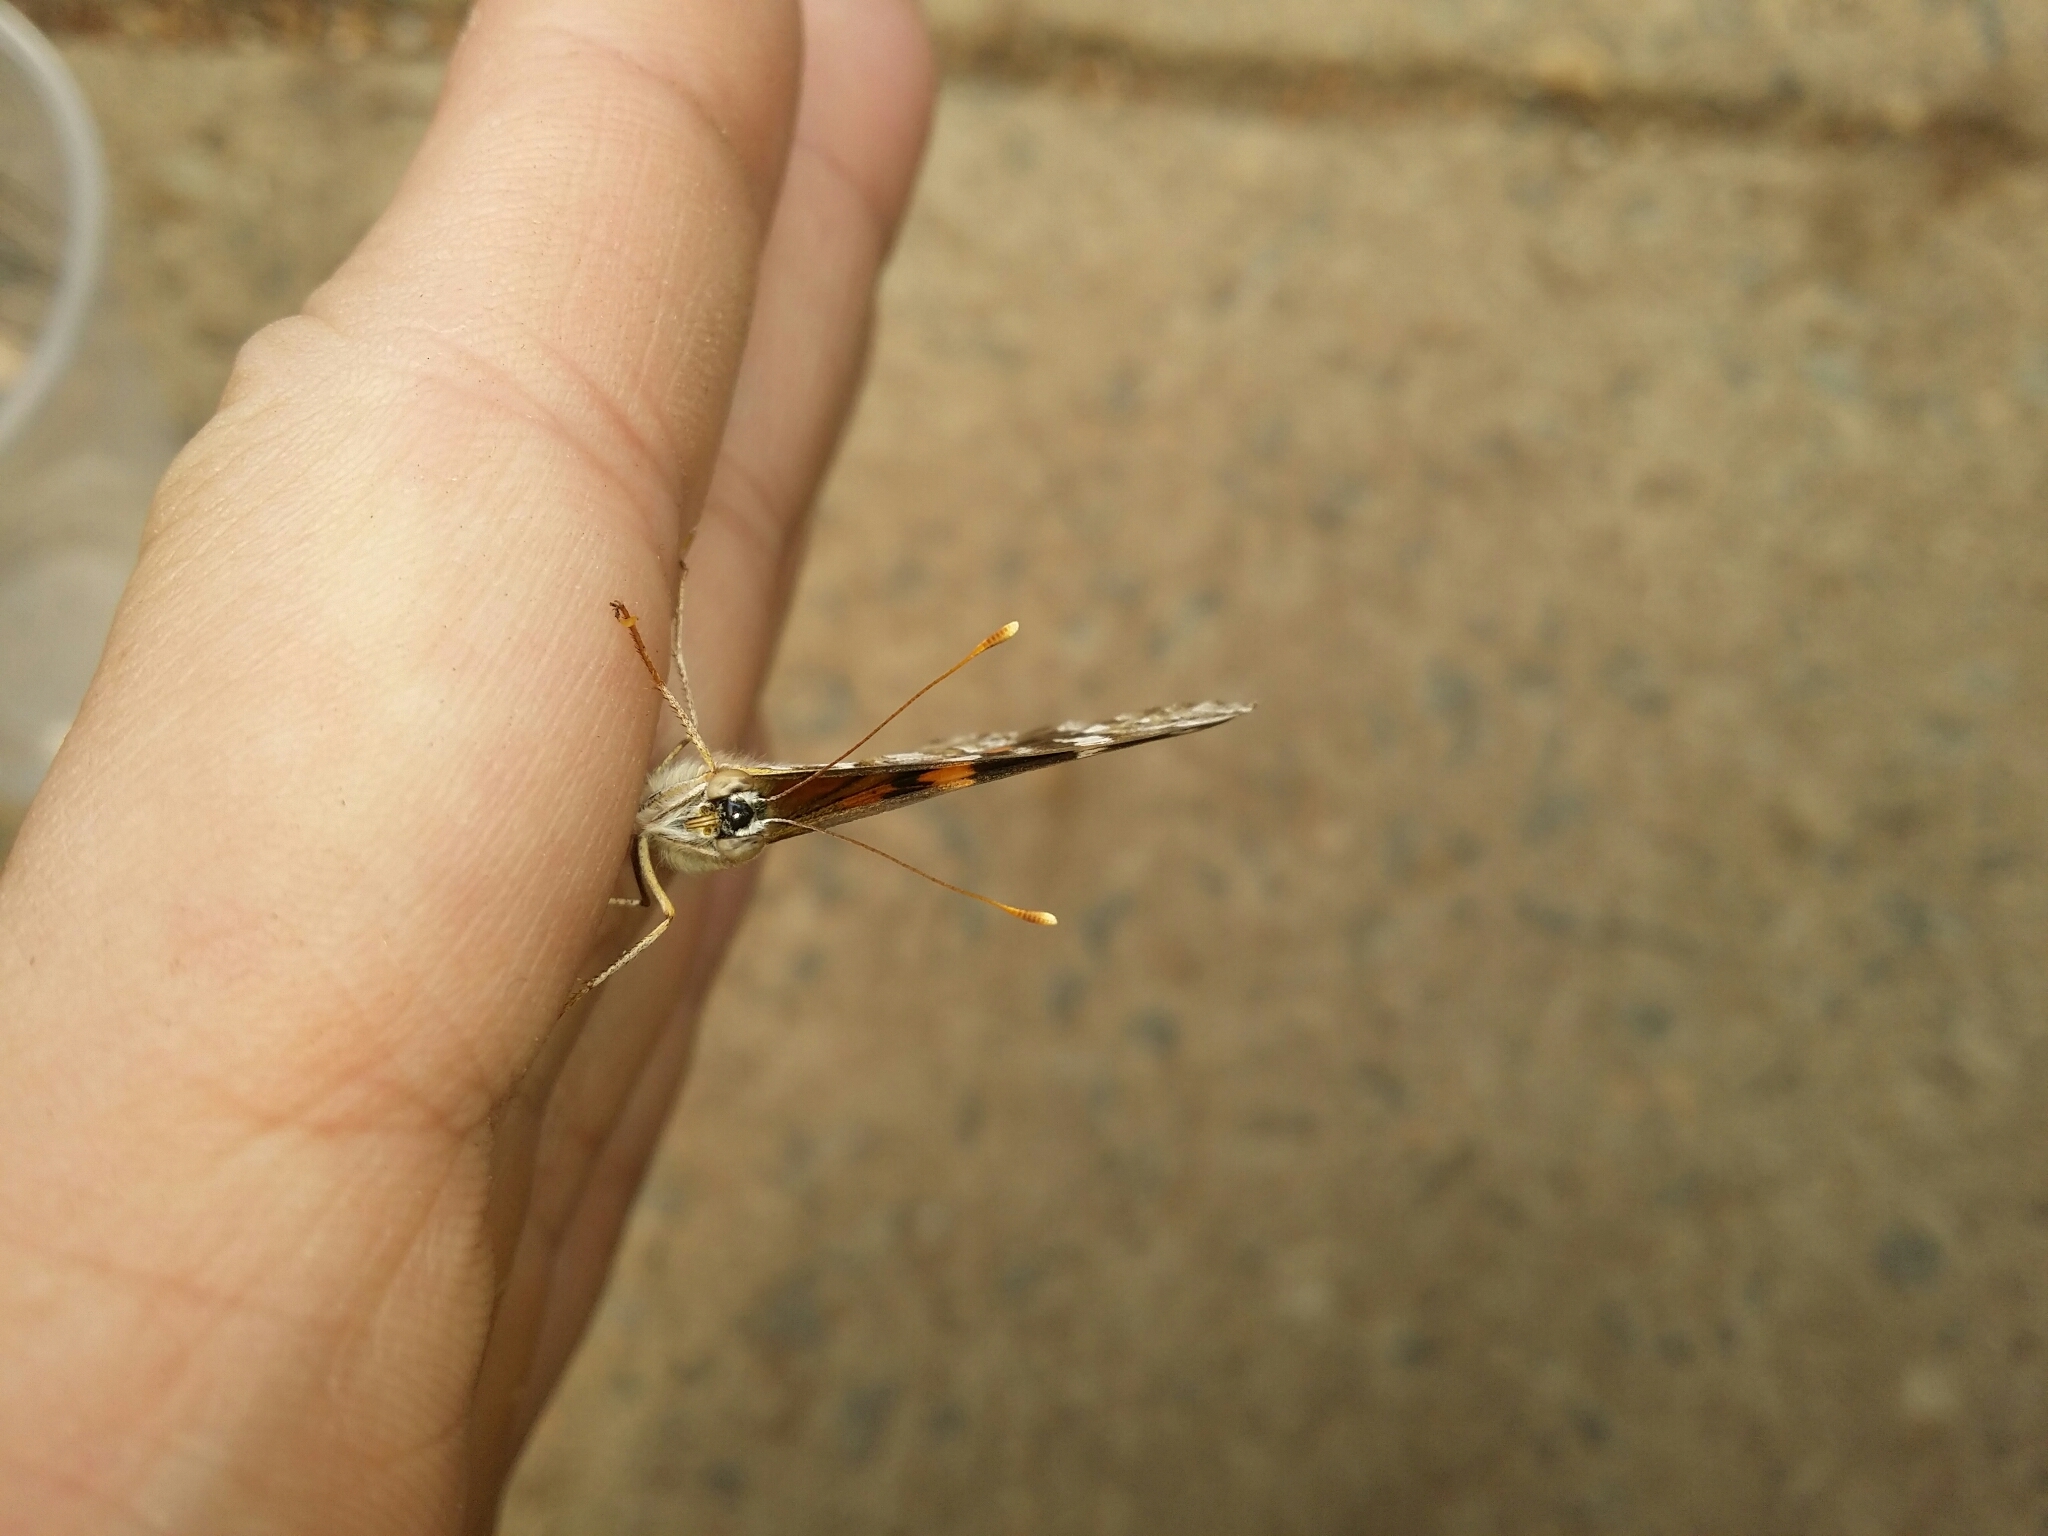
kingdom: Animalia
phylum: Arthropoda
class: Insecta
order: Lepidoptera
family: Nymphalidae
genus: Vanessa
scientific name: Vanessa kershawi
